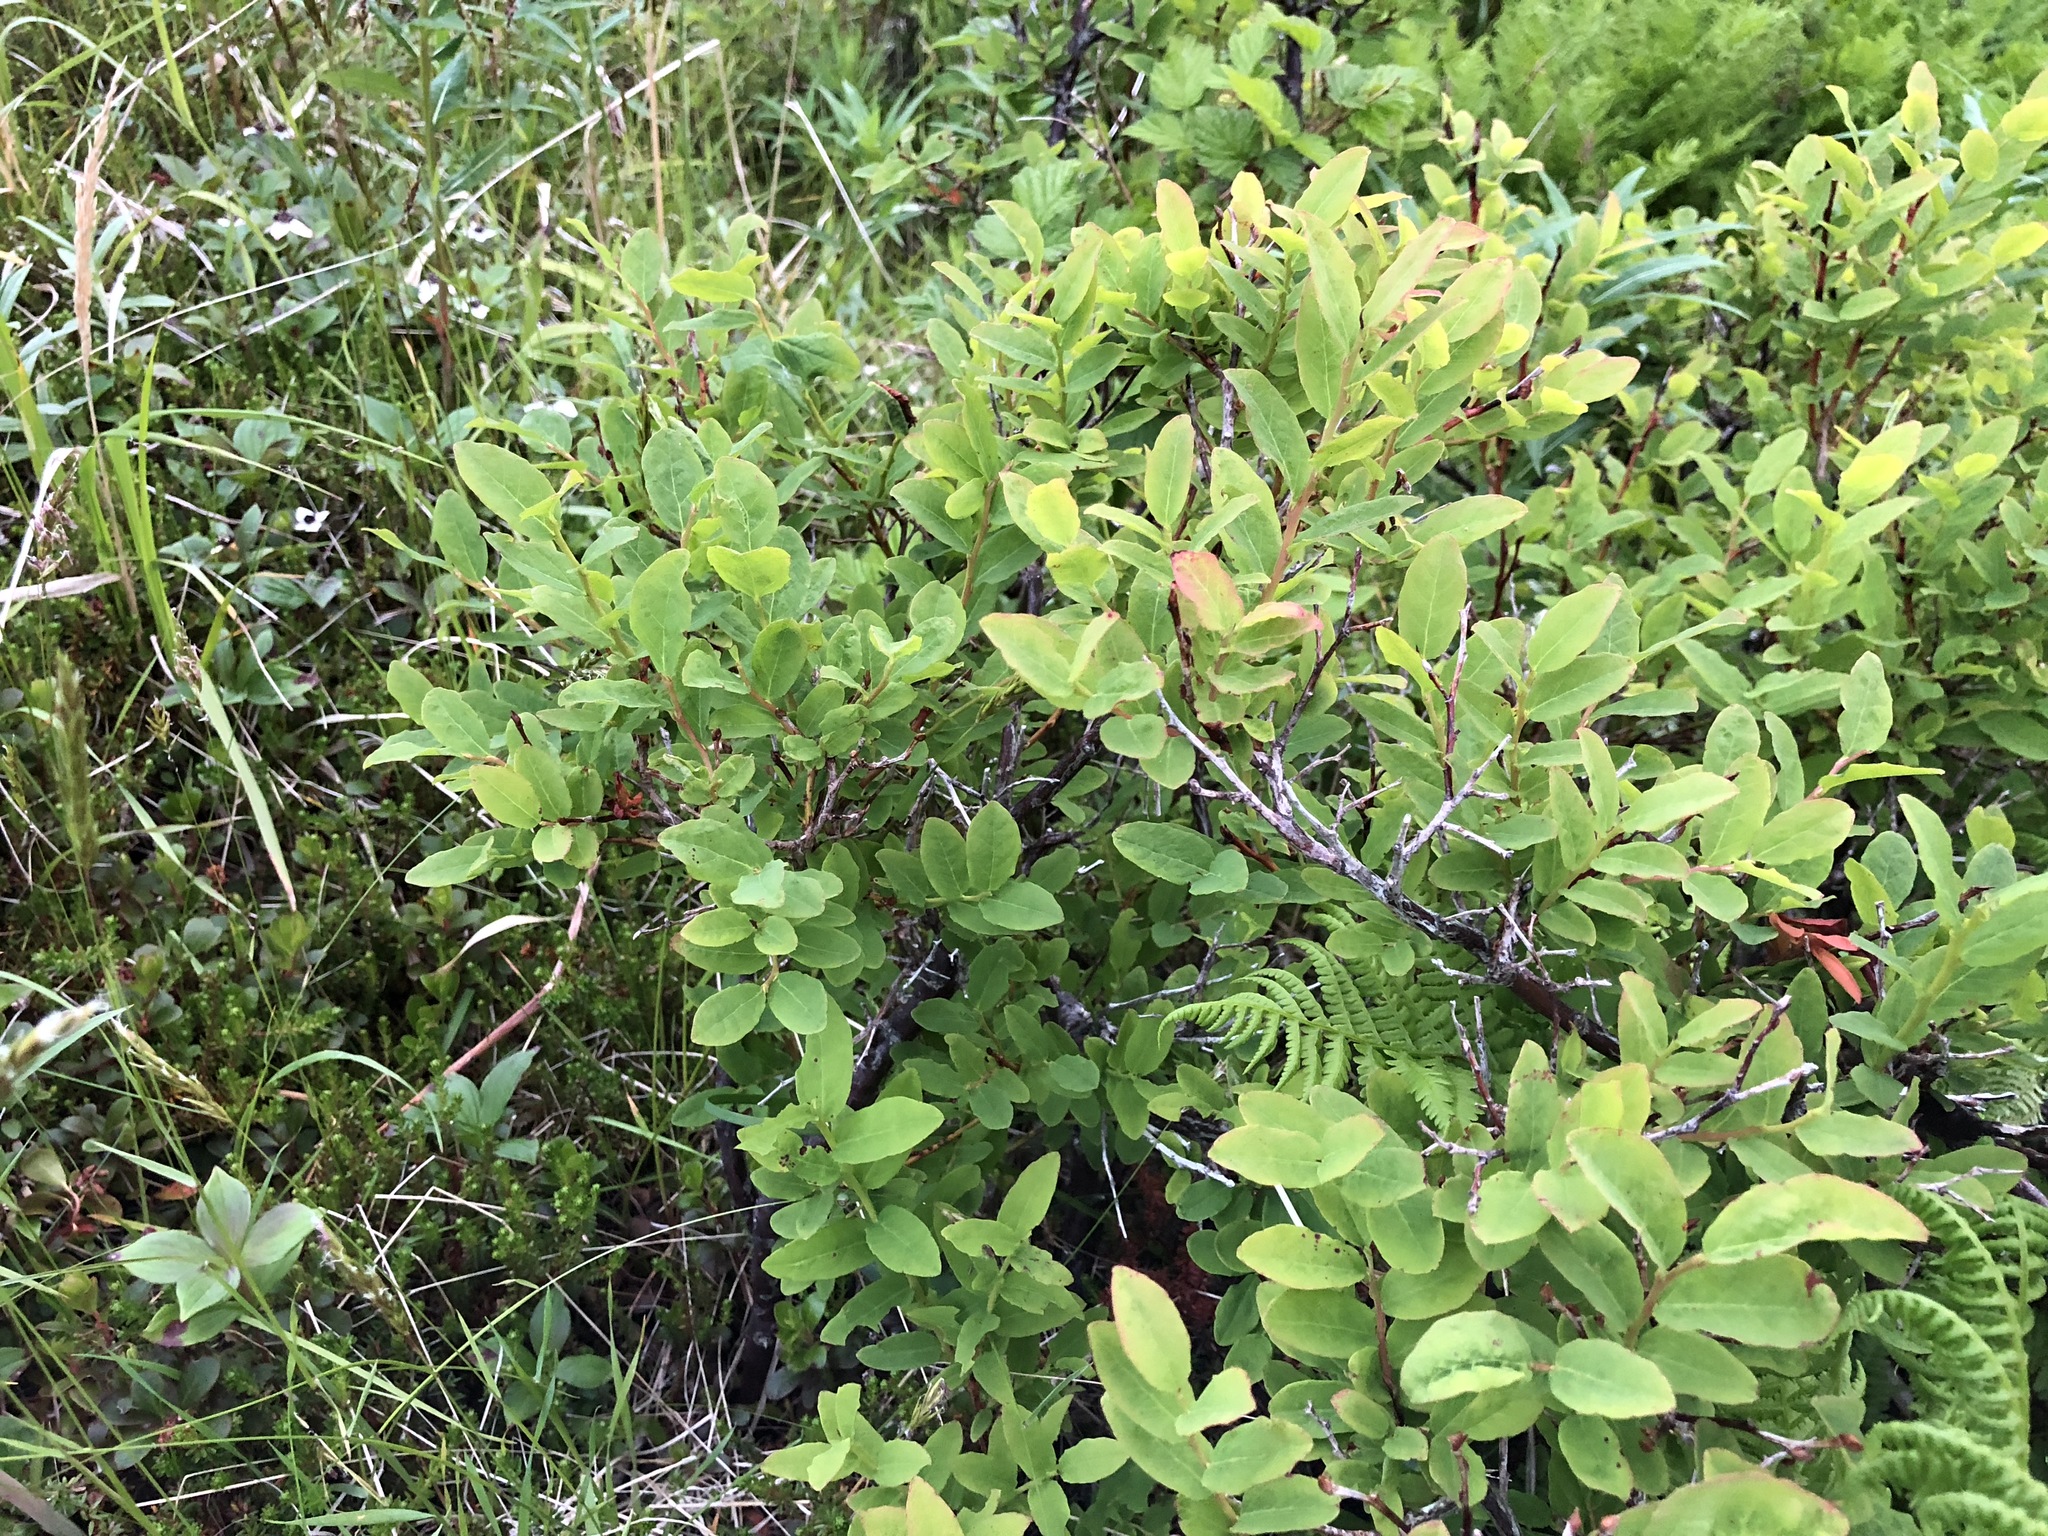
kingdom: Plantae
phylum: Tracheophyta
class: Magnoliopsida
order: Ericales
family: Ericaceae
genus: Vaccinium
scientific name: Vaccinium ovalifolium
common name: Early blueberry
